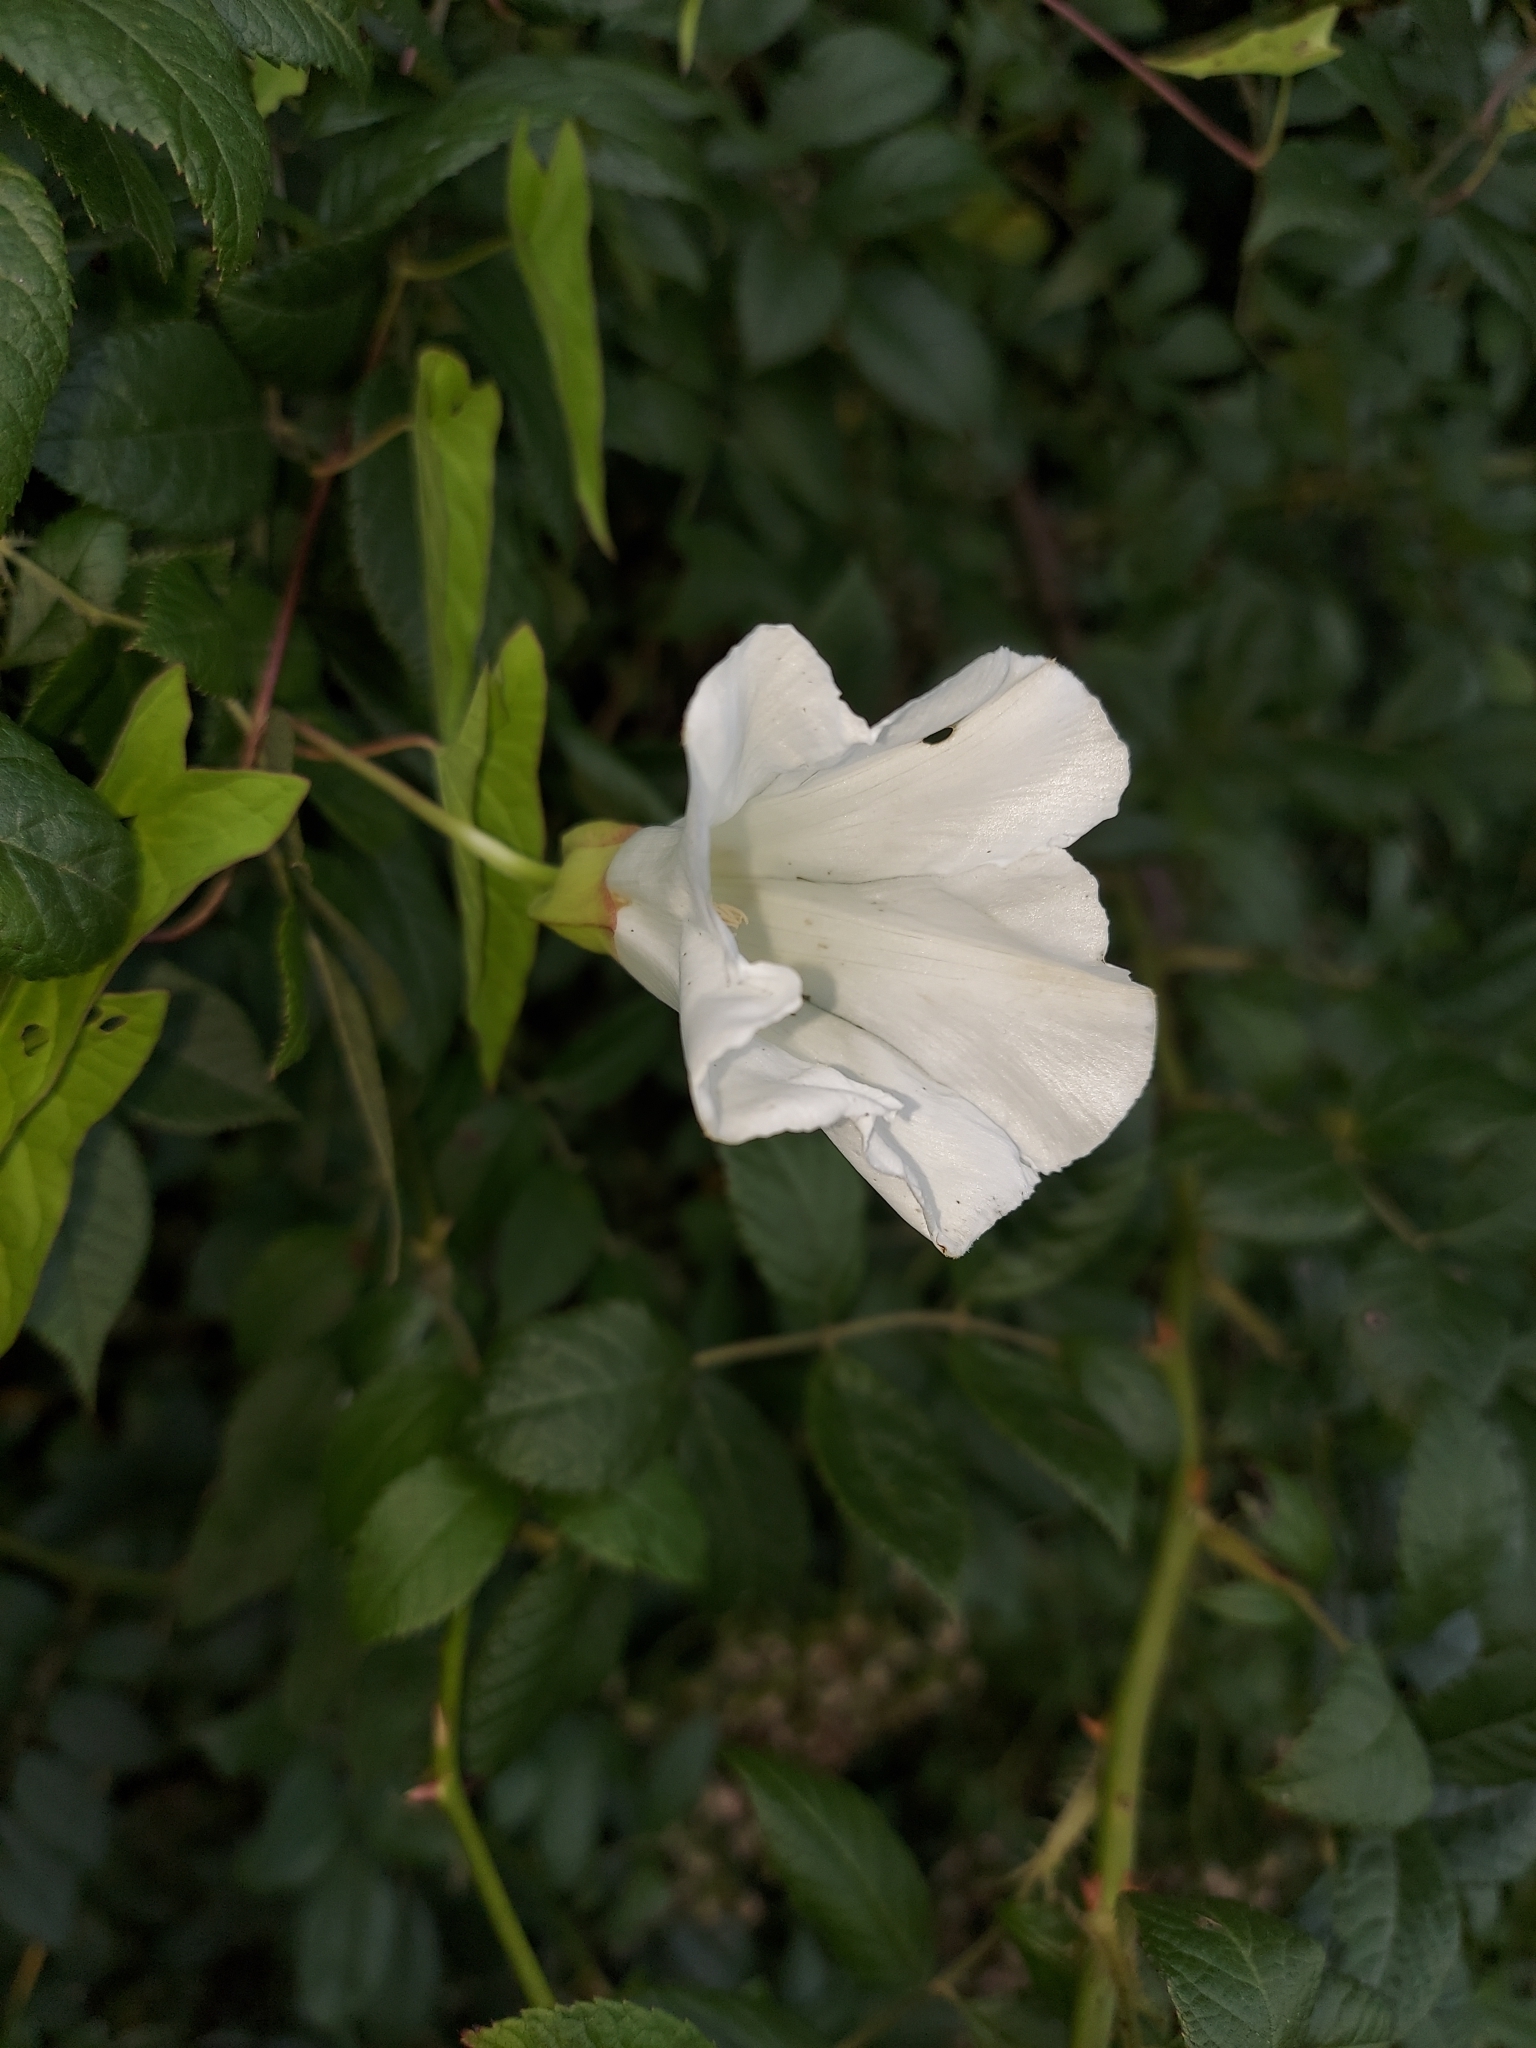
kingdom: Plantae
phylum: Tracheophyta
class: Magnoliopsida
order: Solanales
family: Convolvulaceae
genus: Calystegia
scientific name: Calystegia silvatica
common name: Large bindweed
